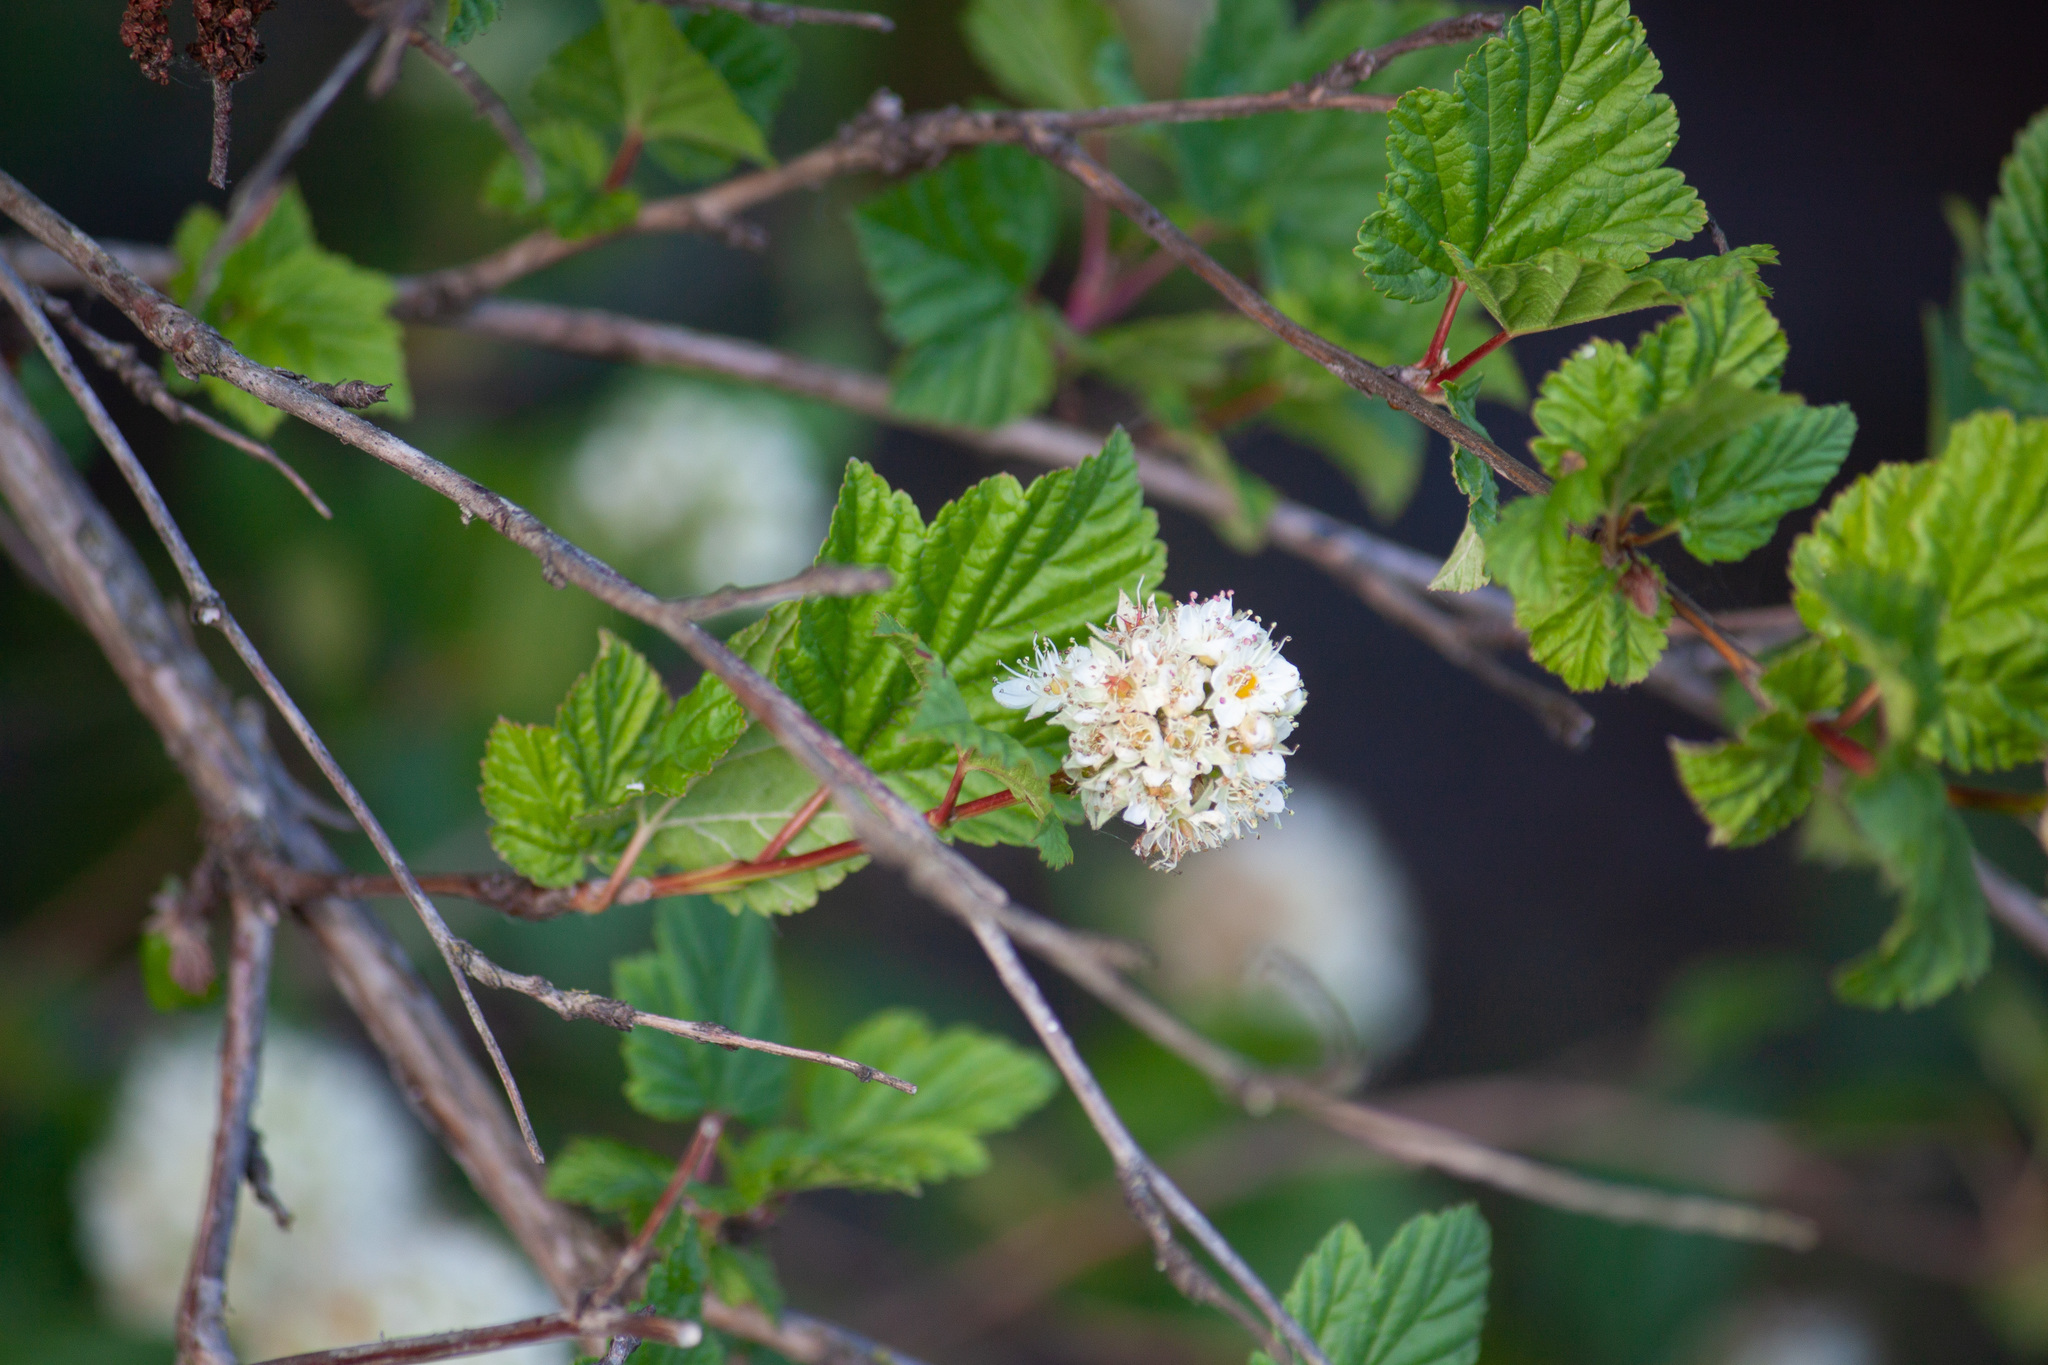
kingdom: Plantae
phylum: Tracheophyta
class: Magnoliopsida
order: Rosales
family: Rosaceae
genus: Physocarpus
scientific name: Physocarpus capitatus
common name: Pacific ninebark
